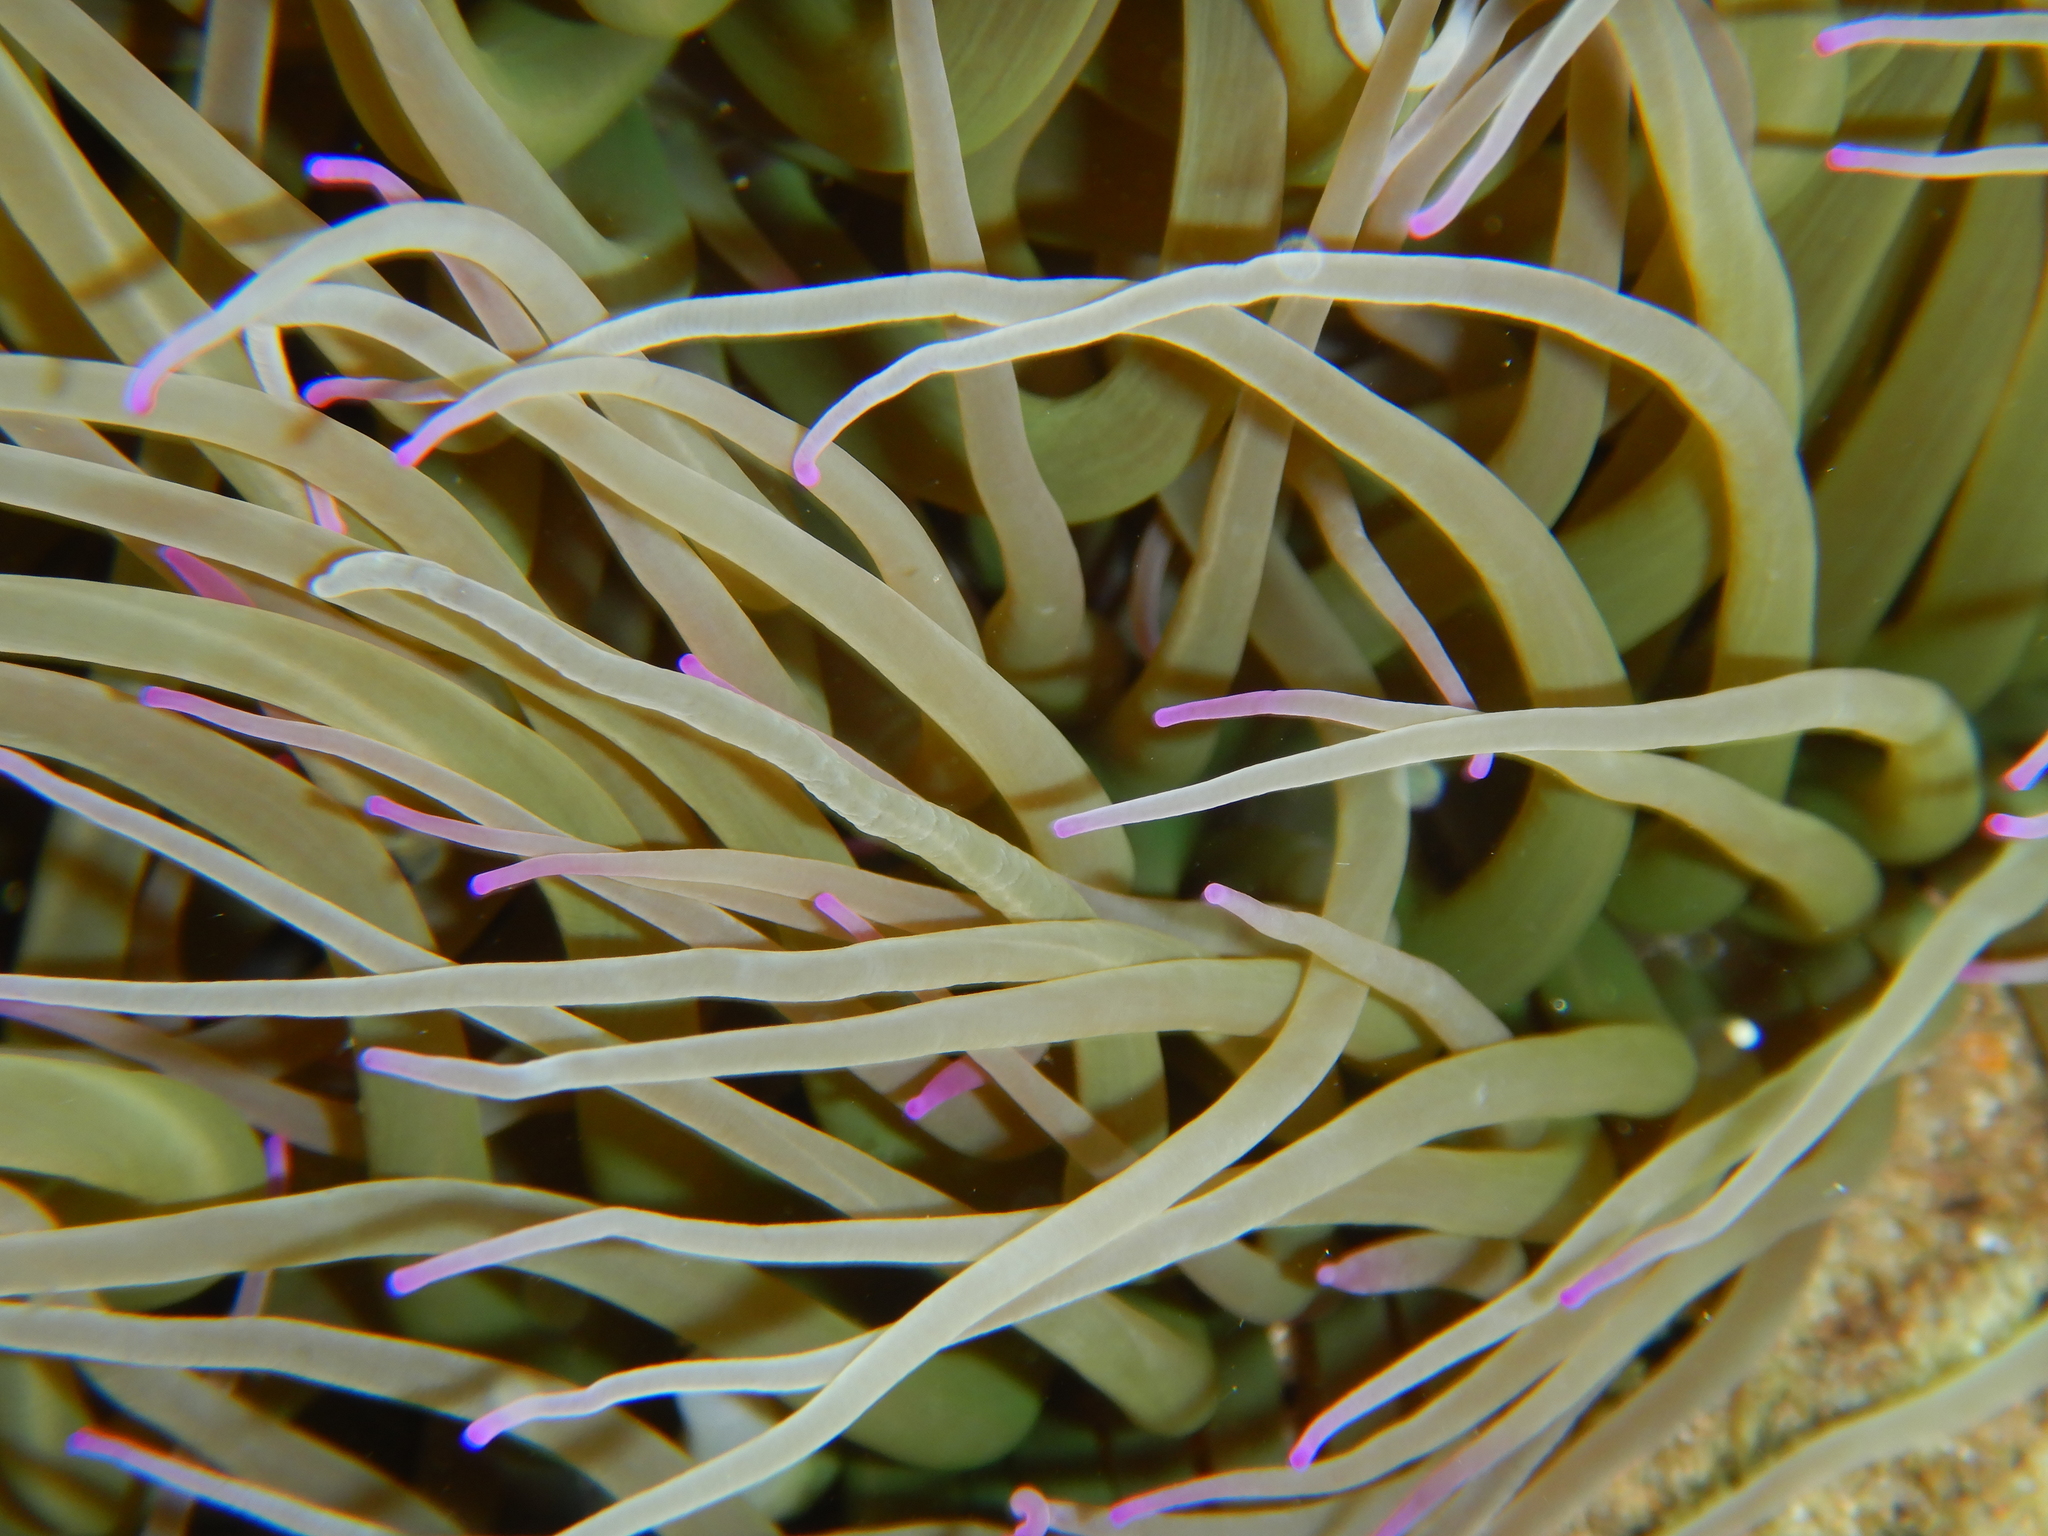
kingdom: Animalia
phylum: Cnidaria
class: Anthozoa
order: Actiniaria
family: Actiniidae
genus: Anemonia
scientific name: Anemonia viridis
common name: Snakelocks anemone
